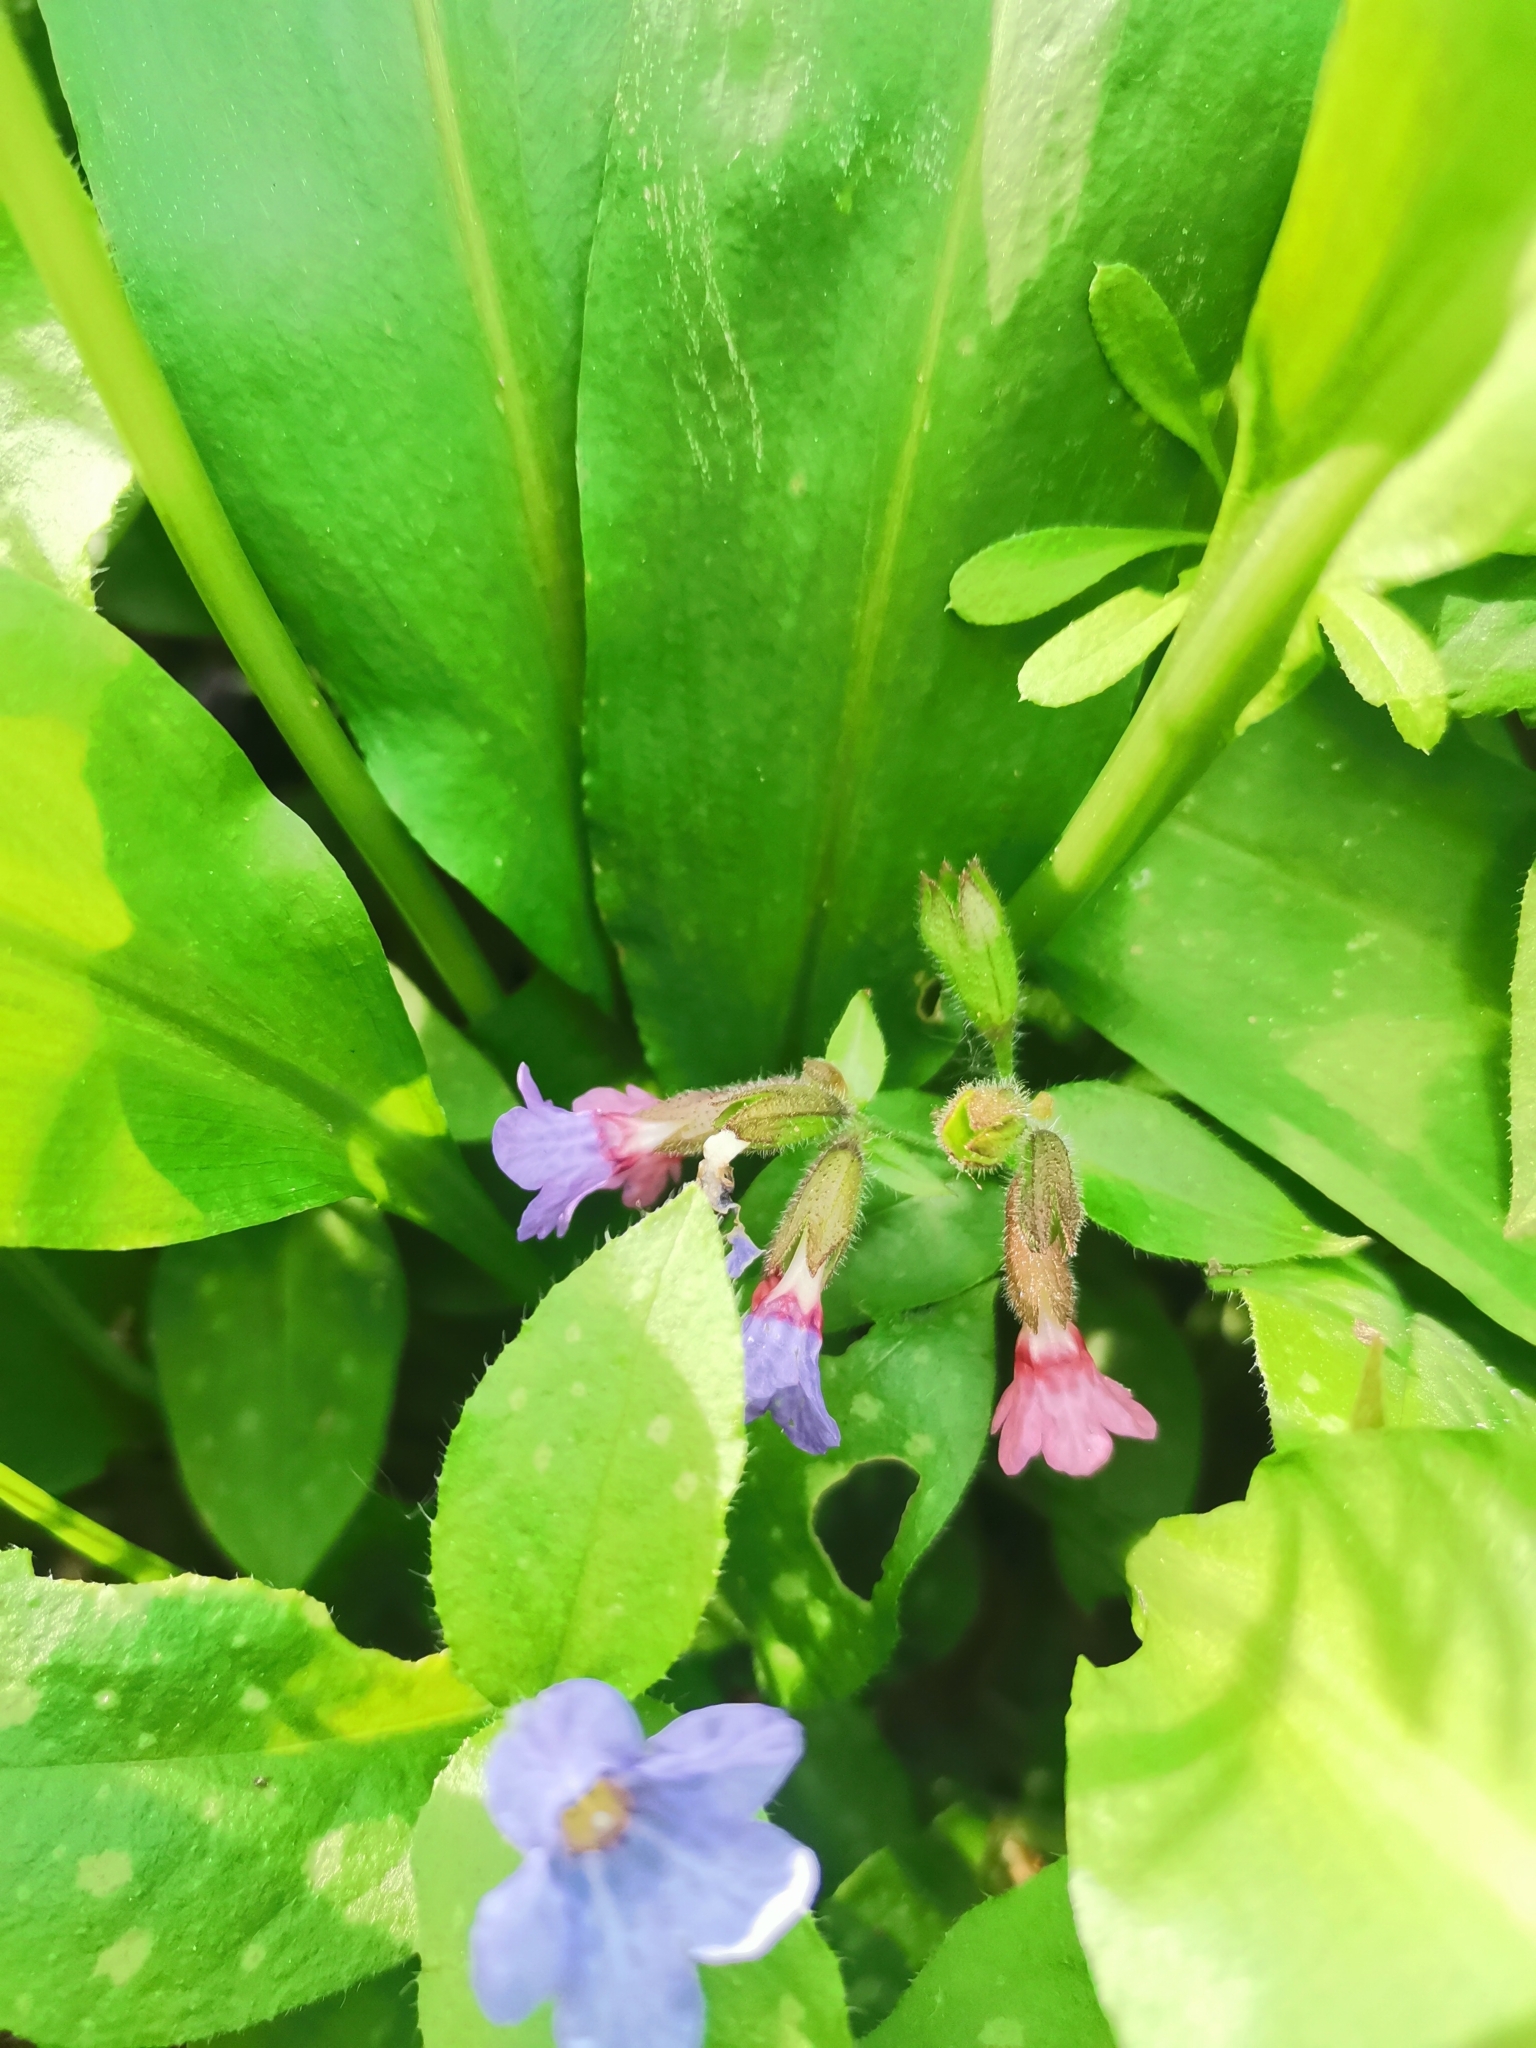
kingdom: Plantae
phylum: Tracheophyta
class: Magnoliopsida
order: Boraginales
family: Boraginaceae
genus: Pulmonaria
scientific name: Pulmonaria officinalis
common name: Lungwort
